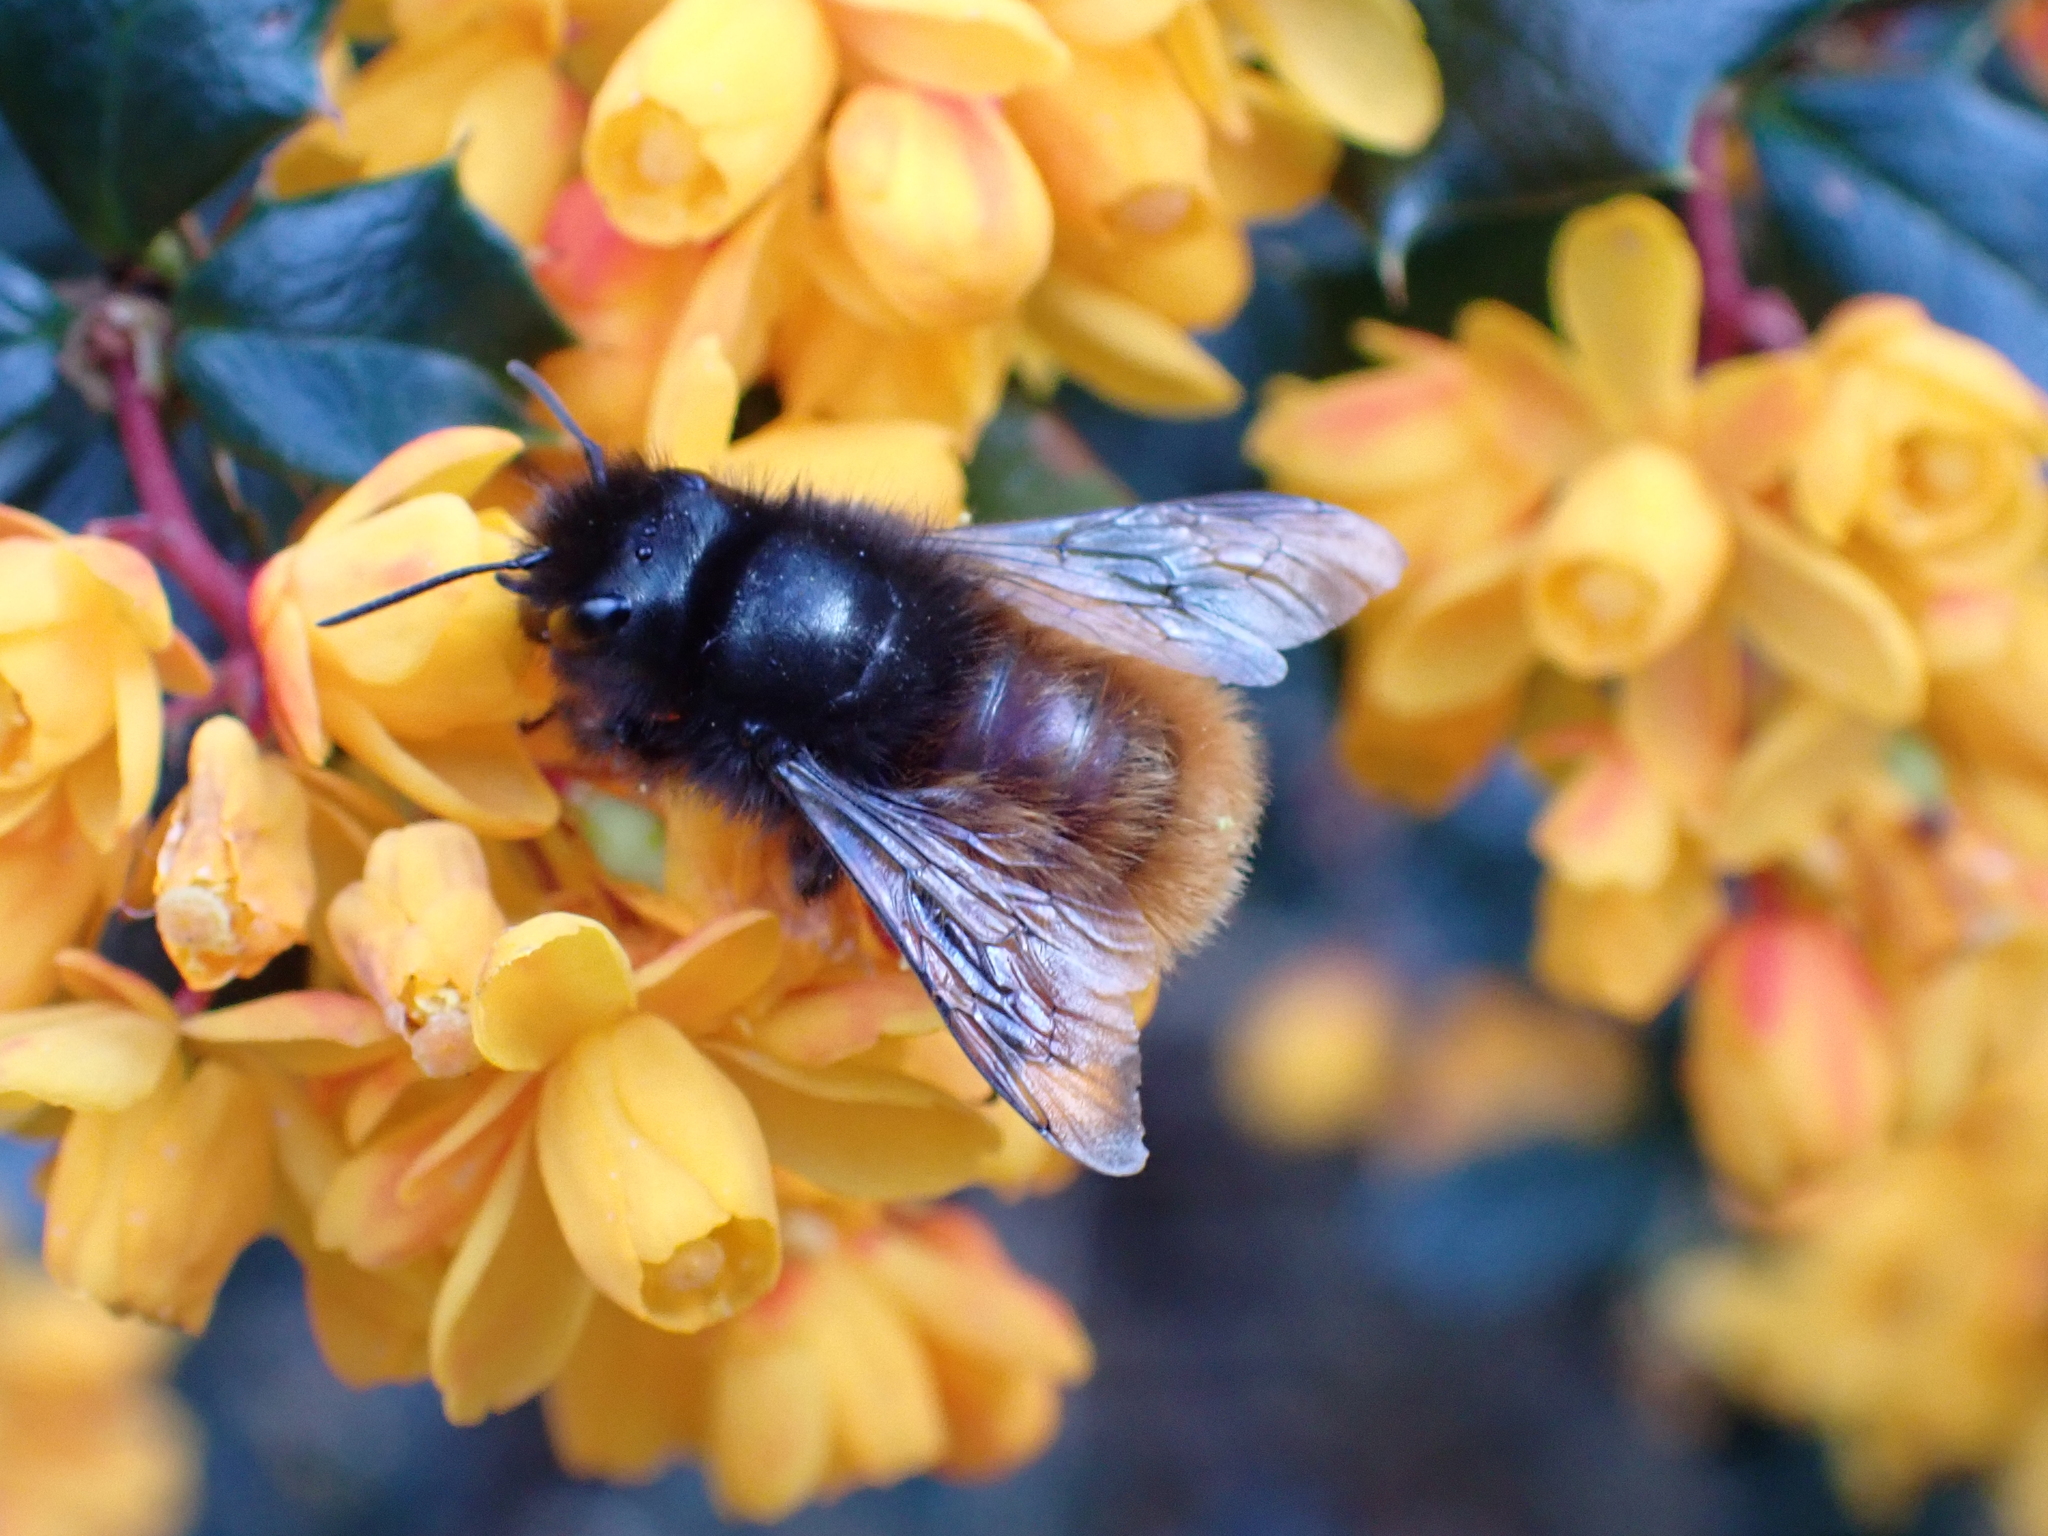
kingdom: Animalia
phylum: Arthropoda
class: Insecta
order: Hymenoptera
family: Megachilidae
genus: Osmia
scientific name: Osmia cornuta
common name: Mason bee
